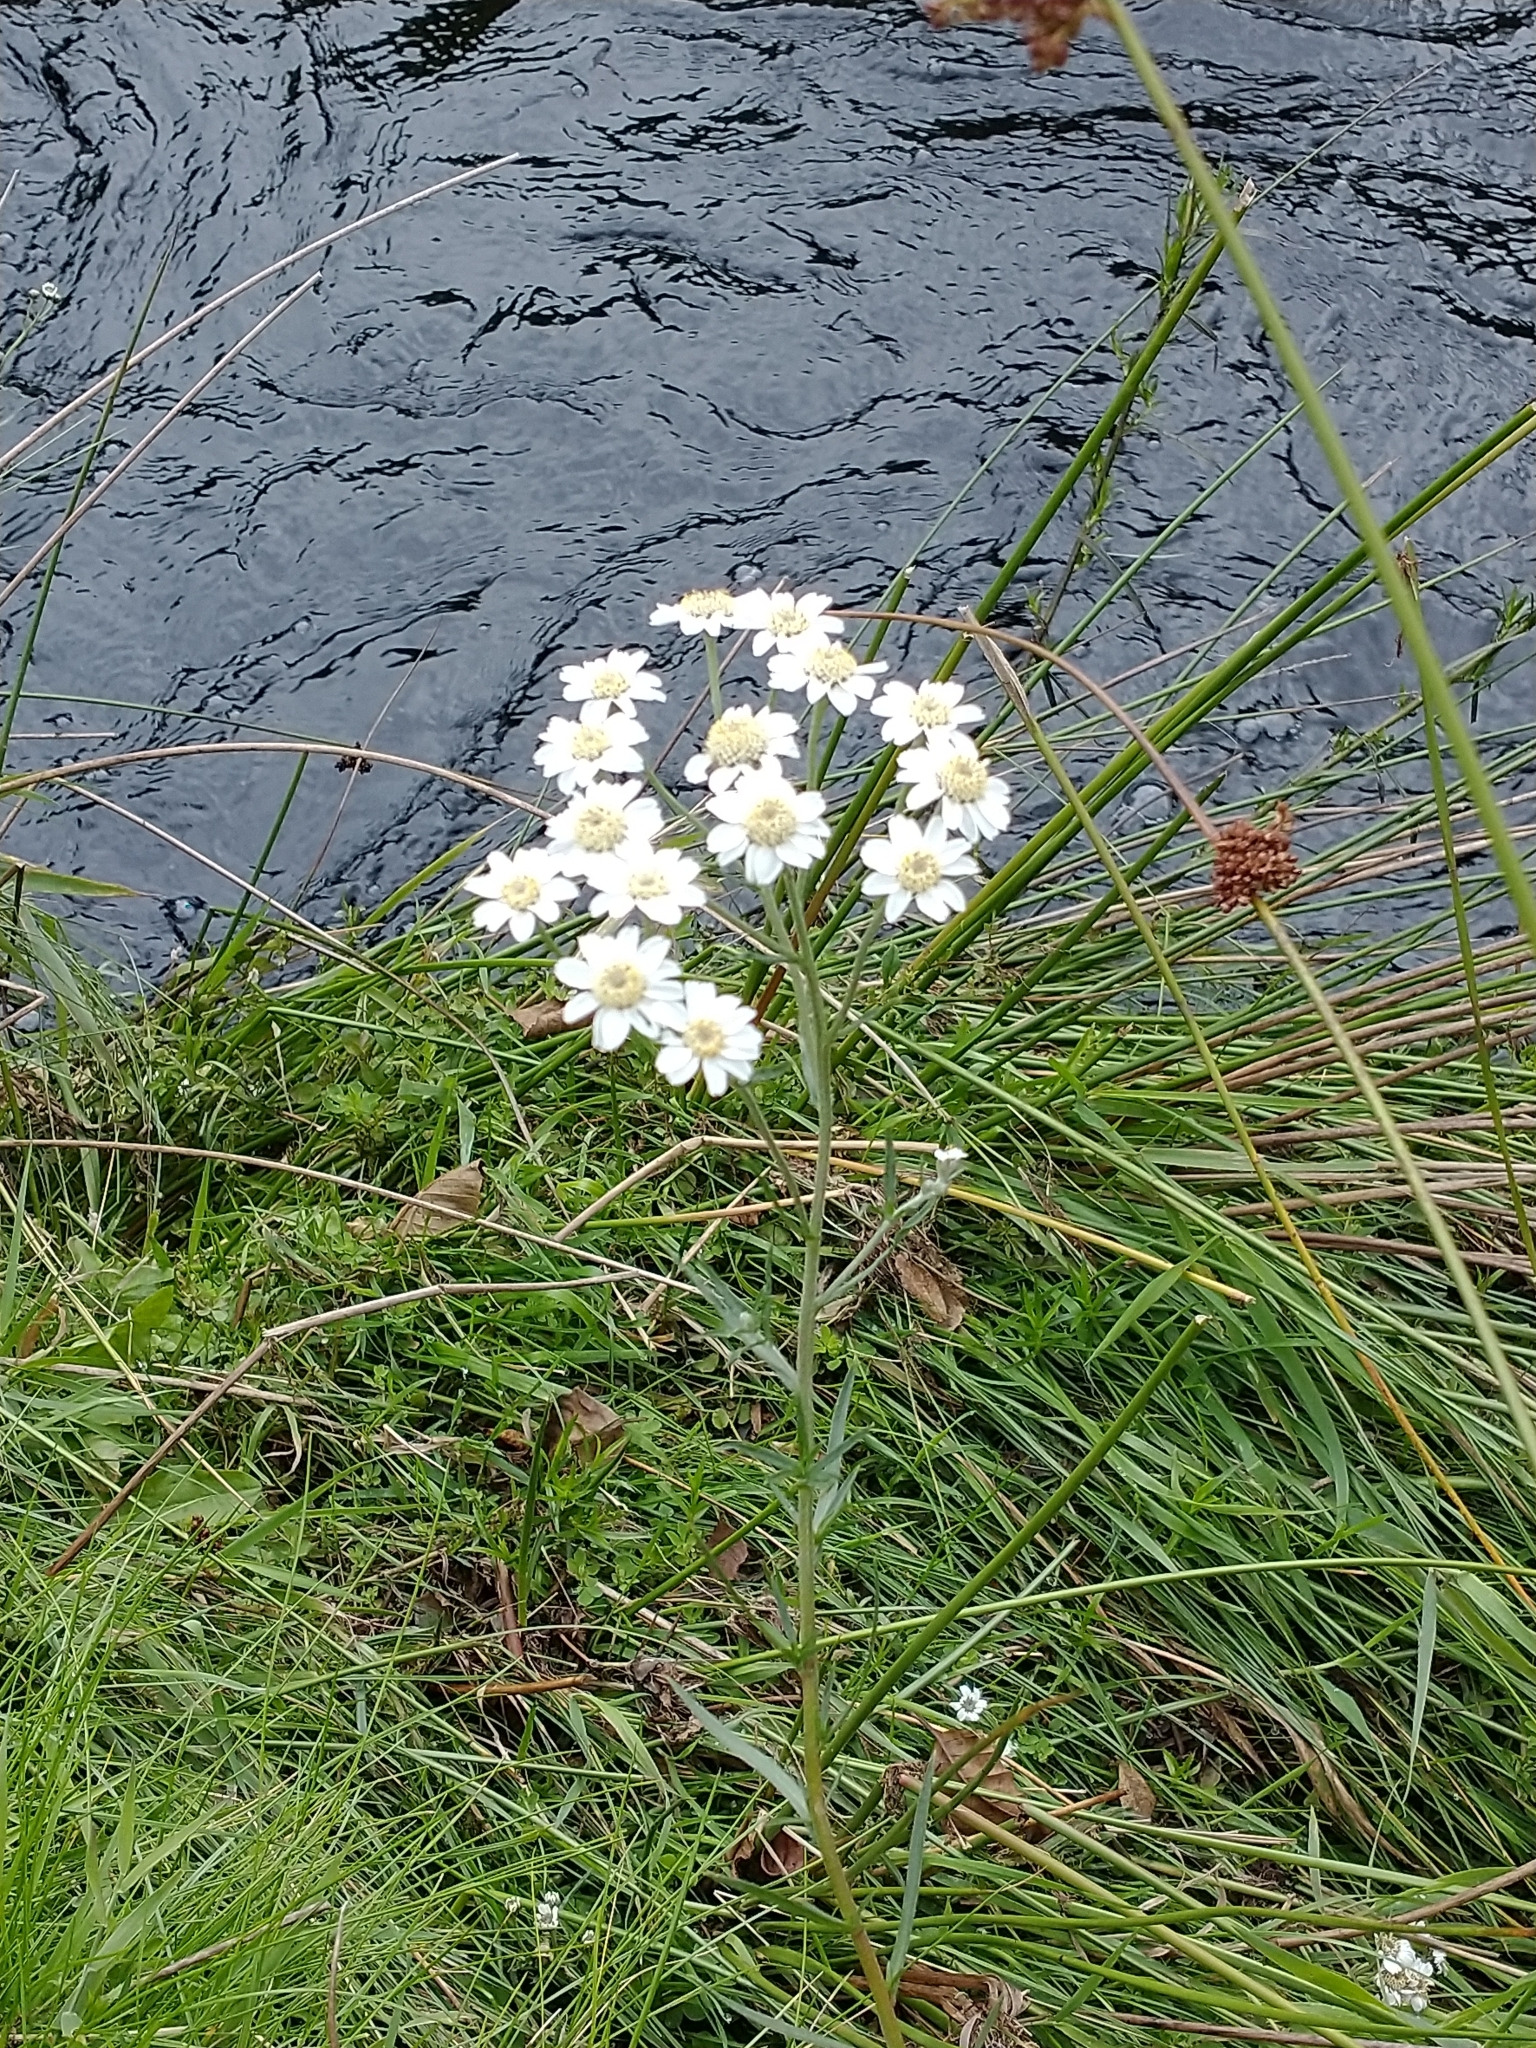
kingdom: Plantae
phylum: Tracheophyta
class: Magnoliopsida
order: Asterales
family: Asteraceae
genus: Achillea
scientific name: Achillea ptarmica
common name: Sneezeweed
